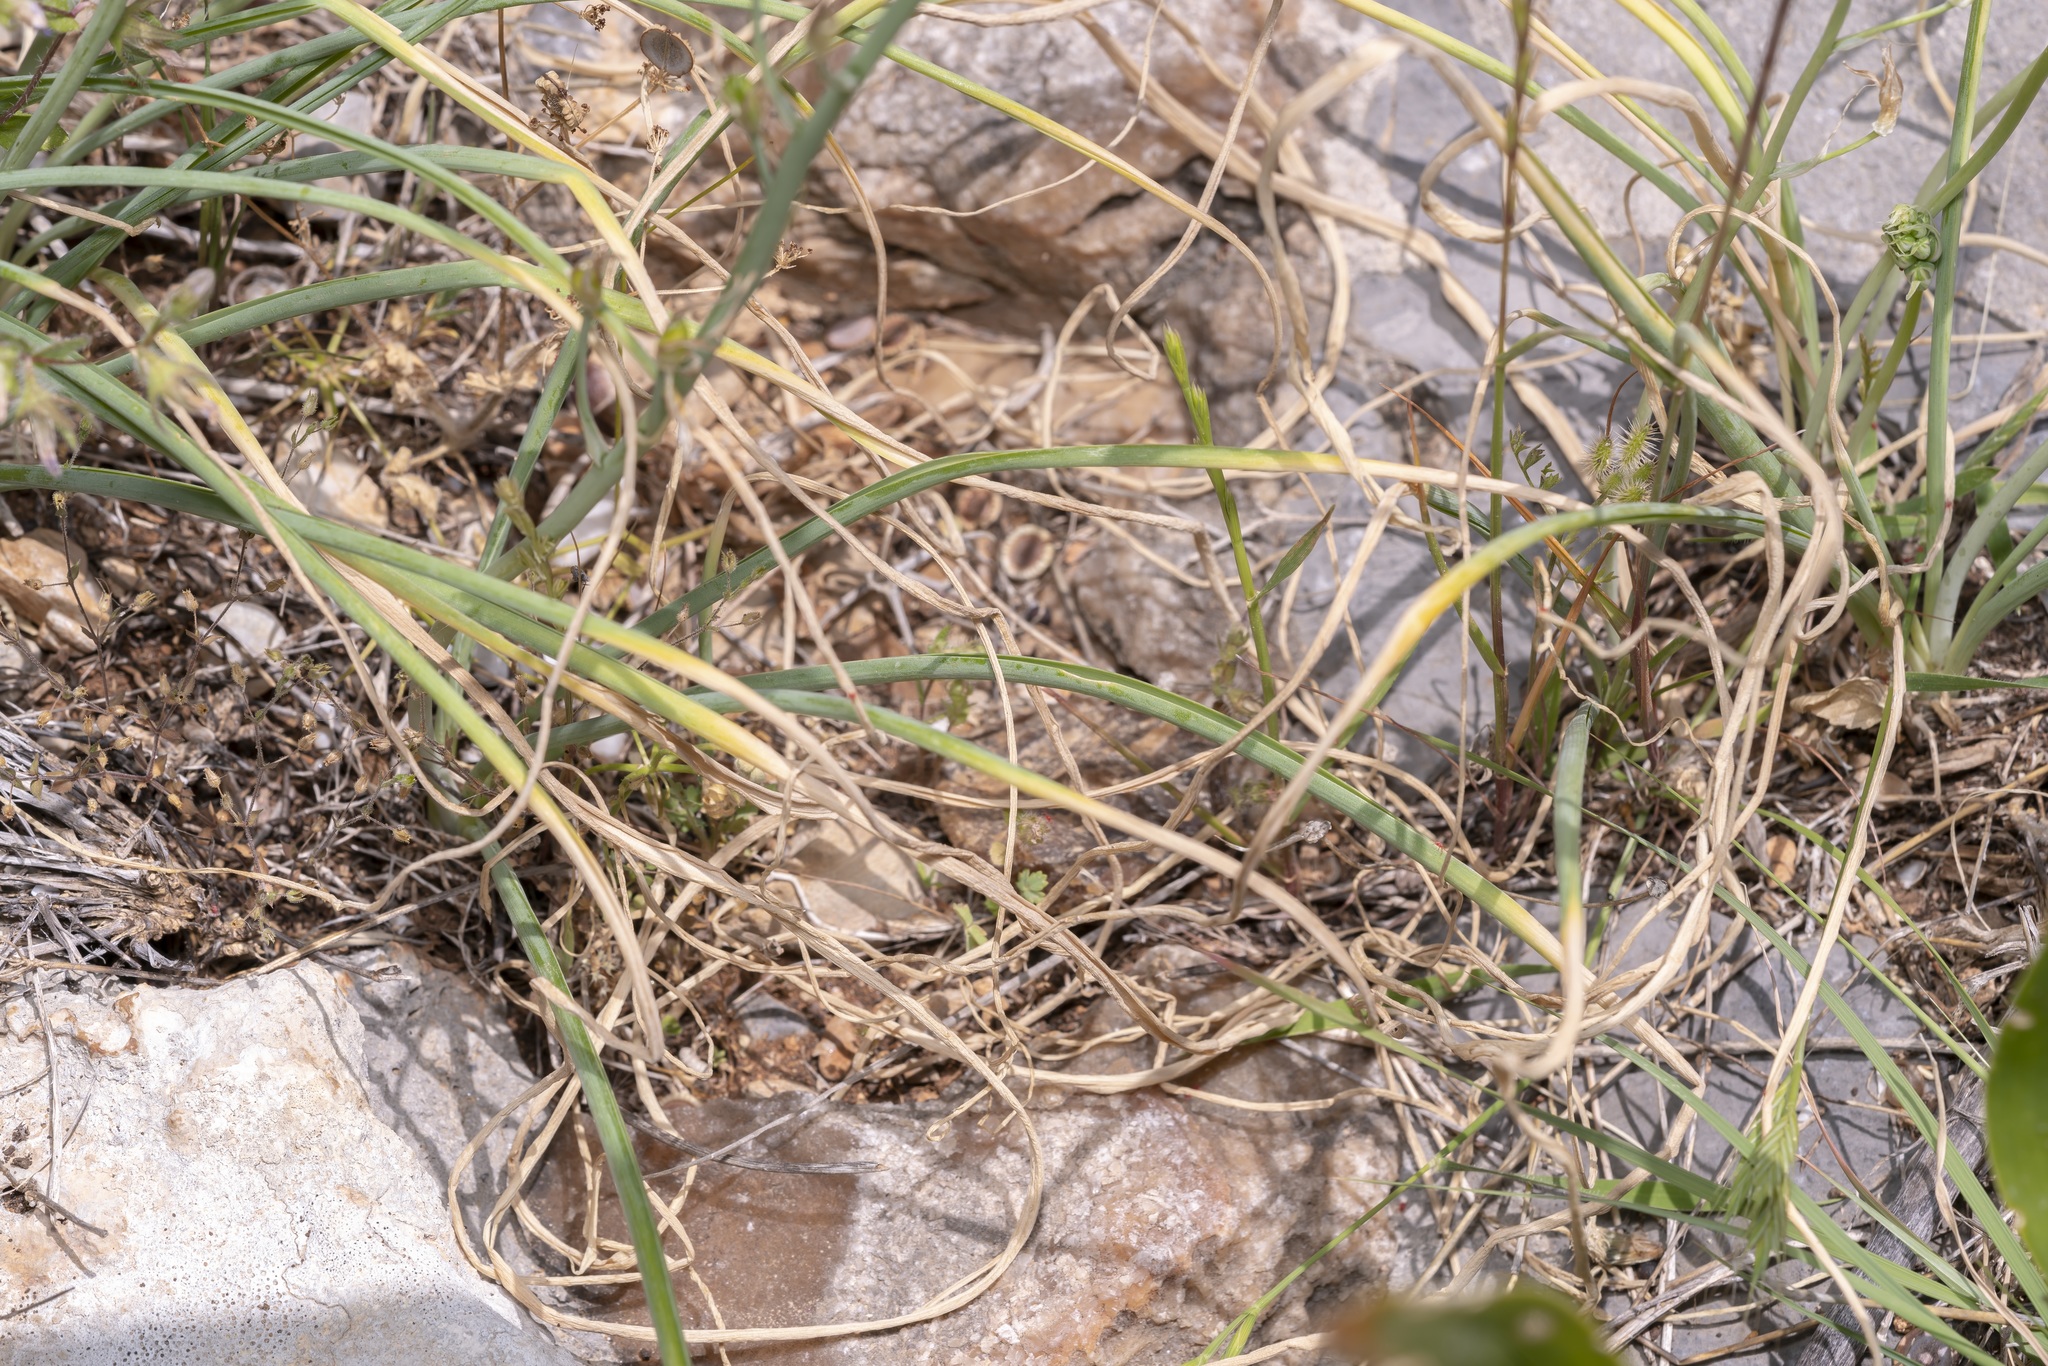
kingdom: Plantae
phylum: Tracheophyta
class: Liliopsida
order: Asparagales
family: Asparagaceae
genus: Ornithogalum
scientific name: Ornithogalum narbonense
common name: Bath-asparagus
